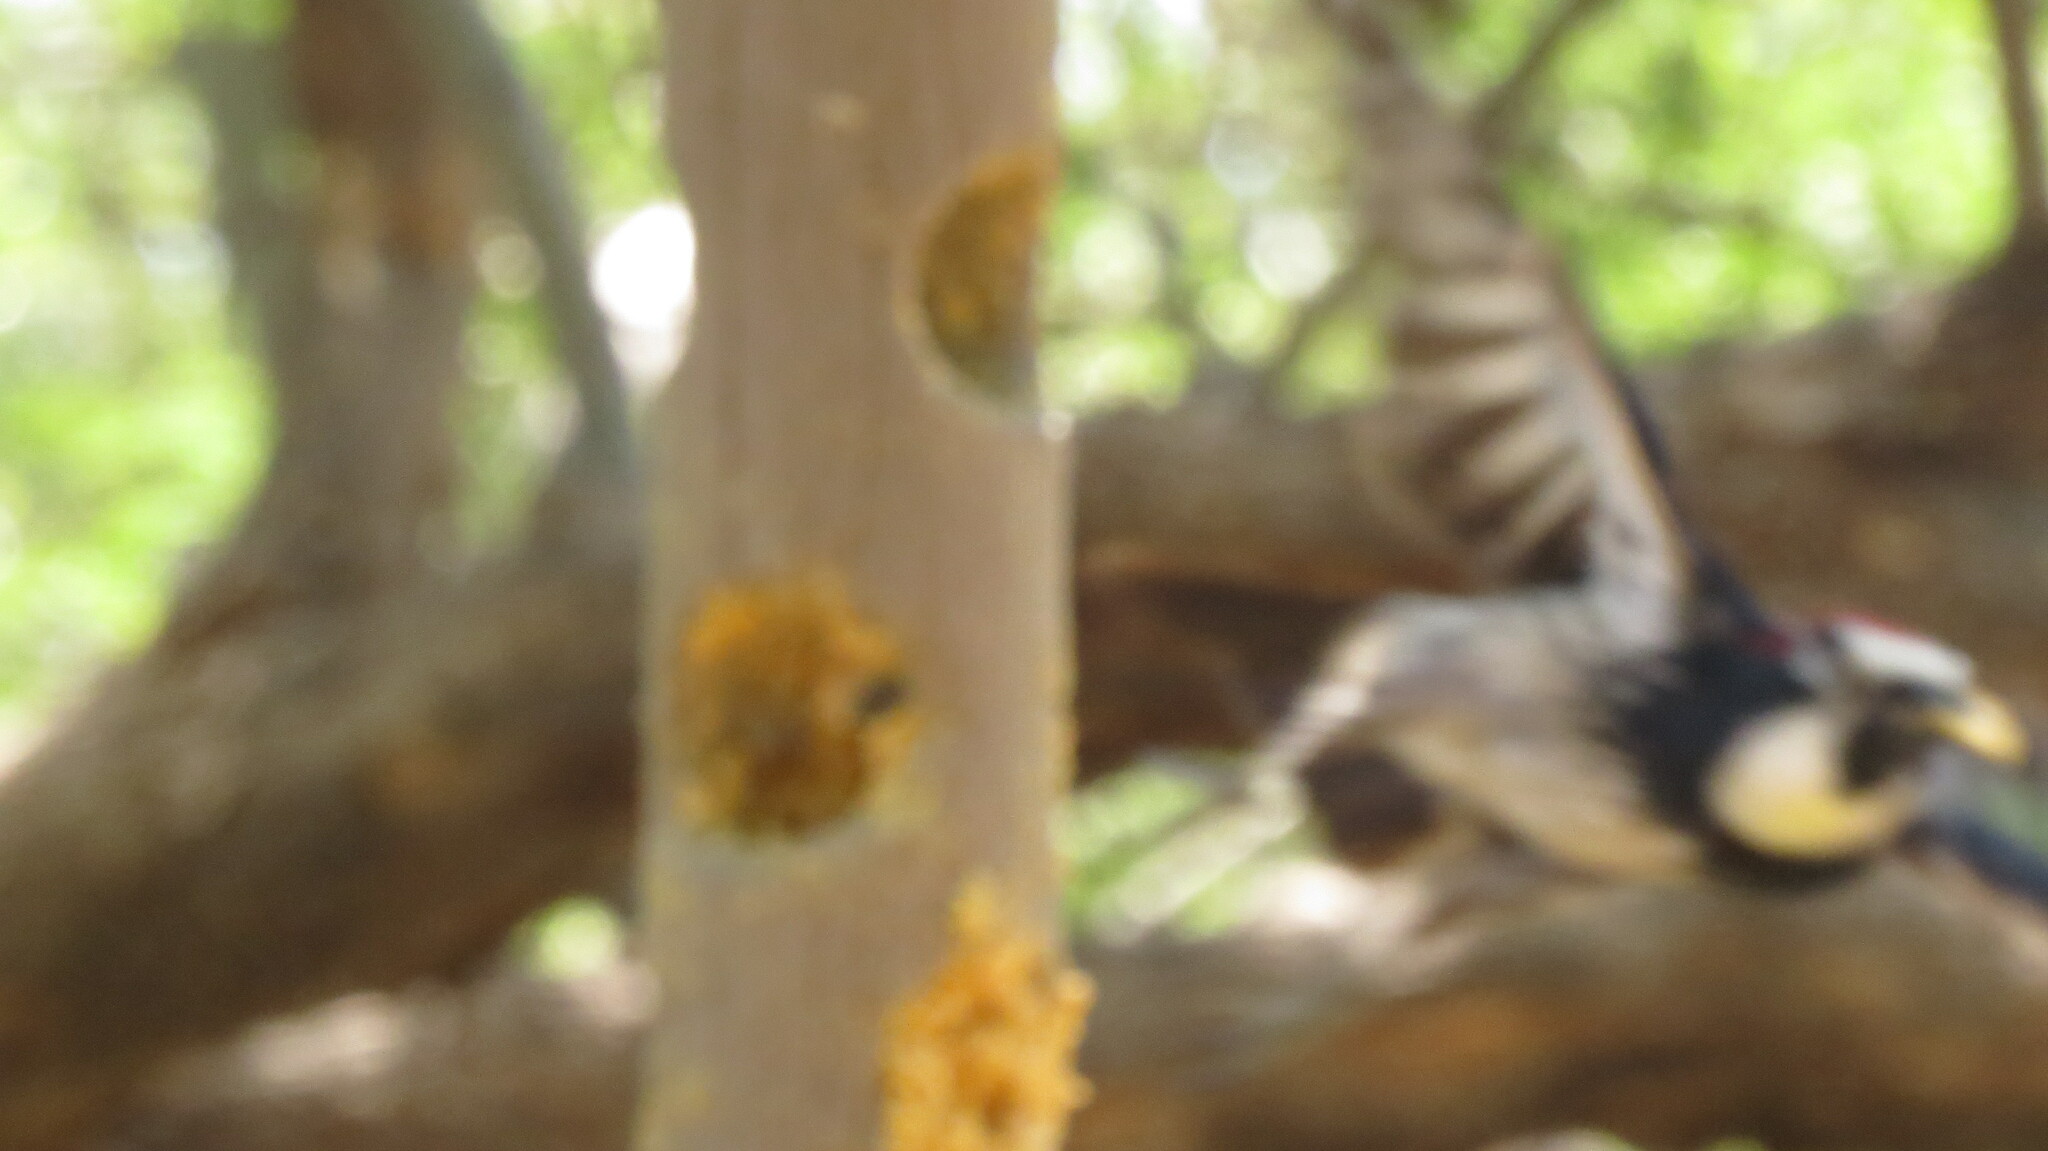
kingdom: Animalia
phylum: Chordata
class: Aves
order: Piciformes
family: Picidae
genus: Melanerpes
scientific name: Melanerpes formicivorus
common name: Acorn woodpecker
